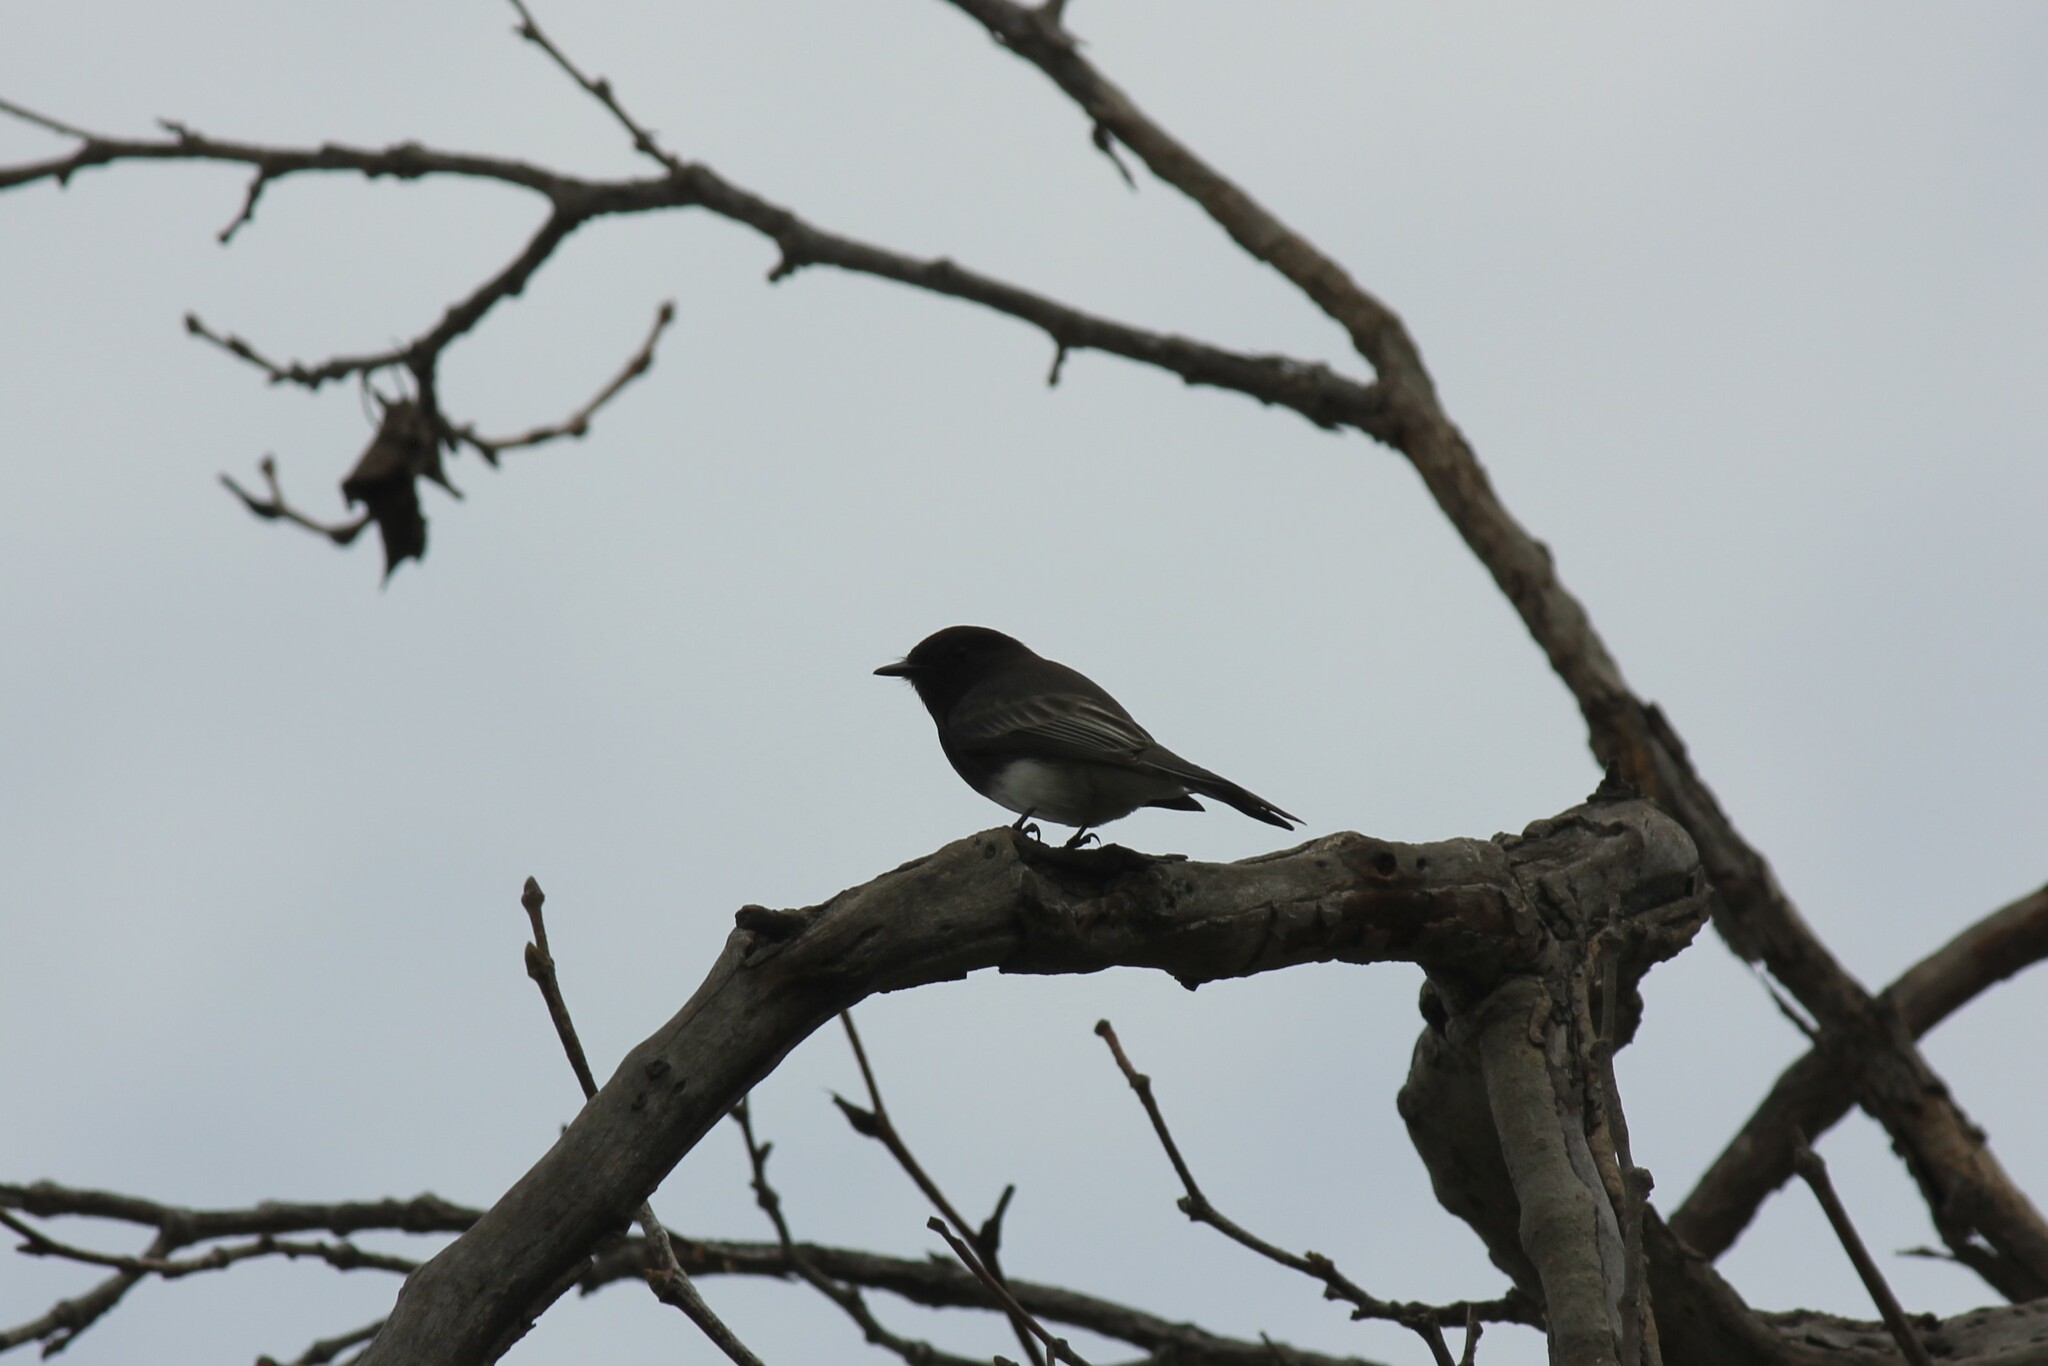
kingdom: Animalia
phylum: Chordata
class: Aves
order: Passeriformes
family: Tyrannidae
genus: Sayornis
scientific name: Sayornis nigricans
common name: Black phoebe
